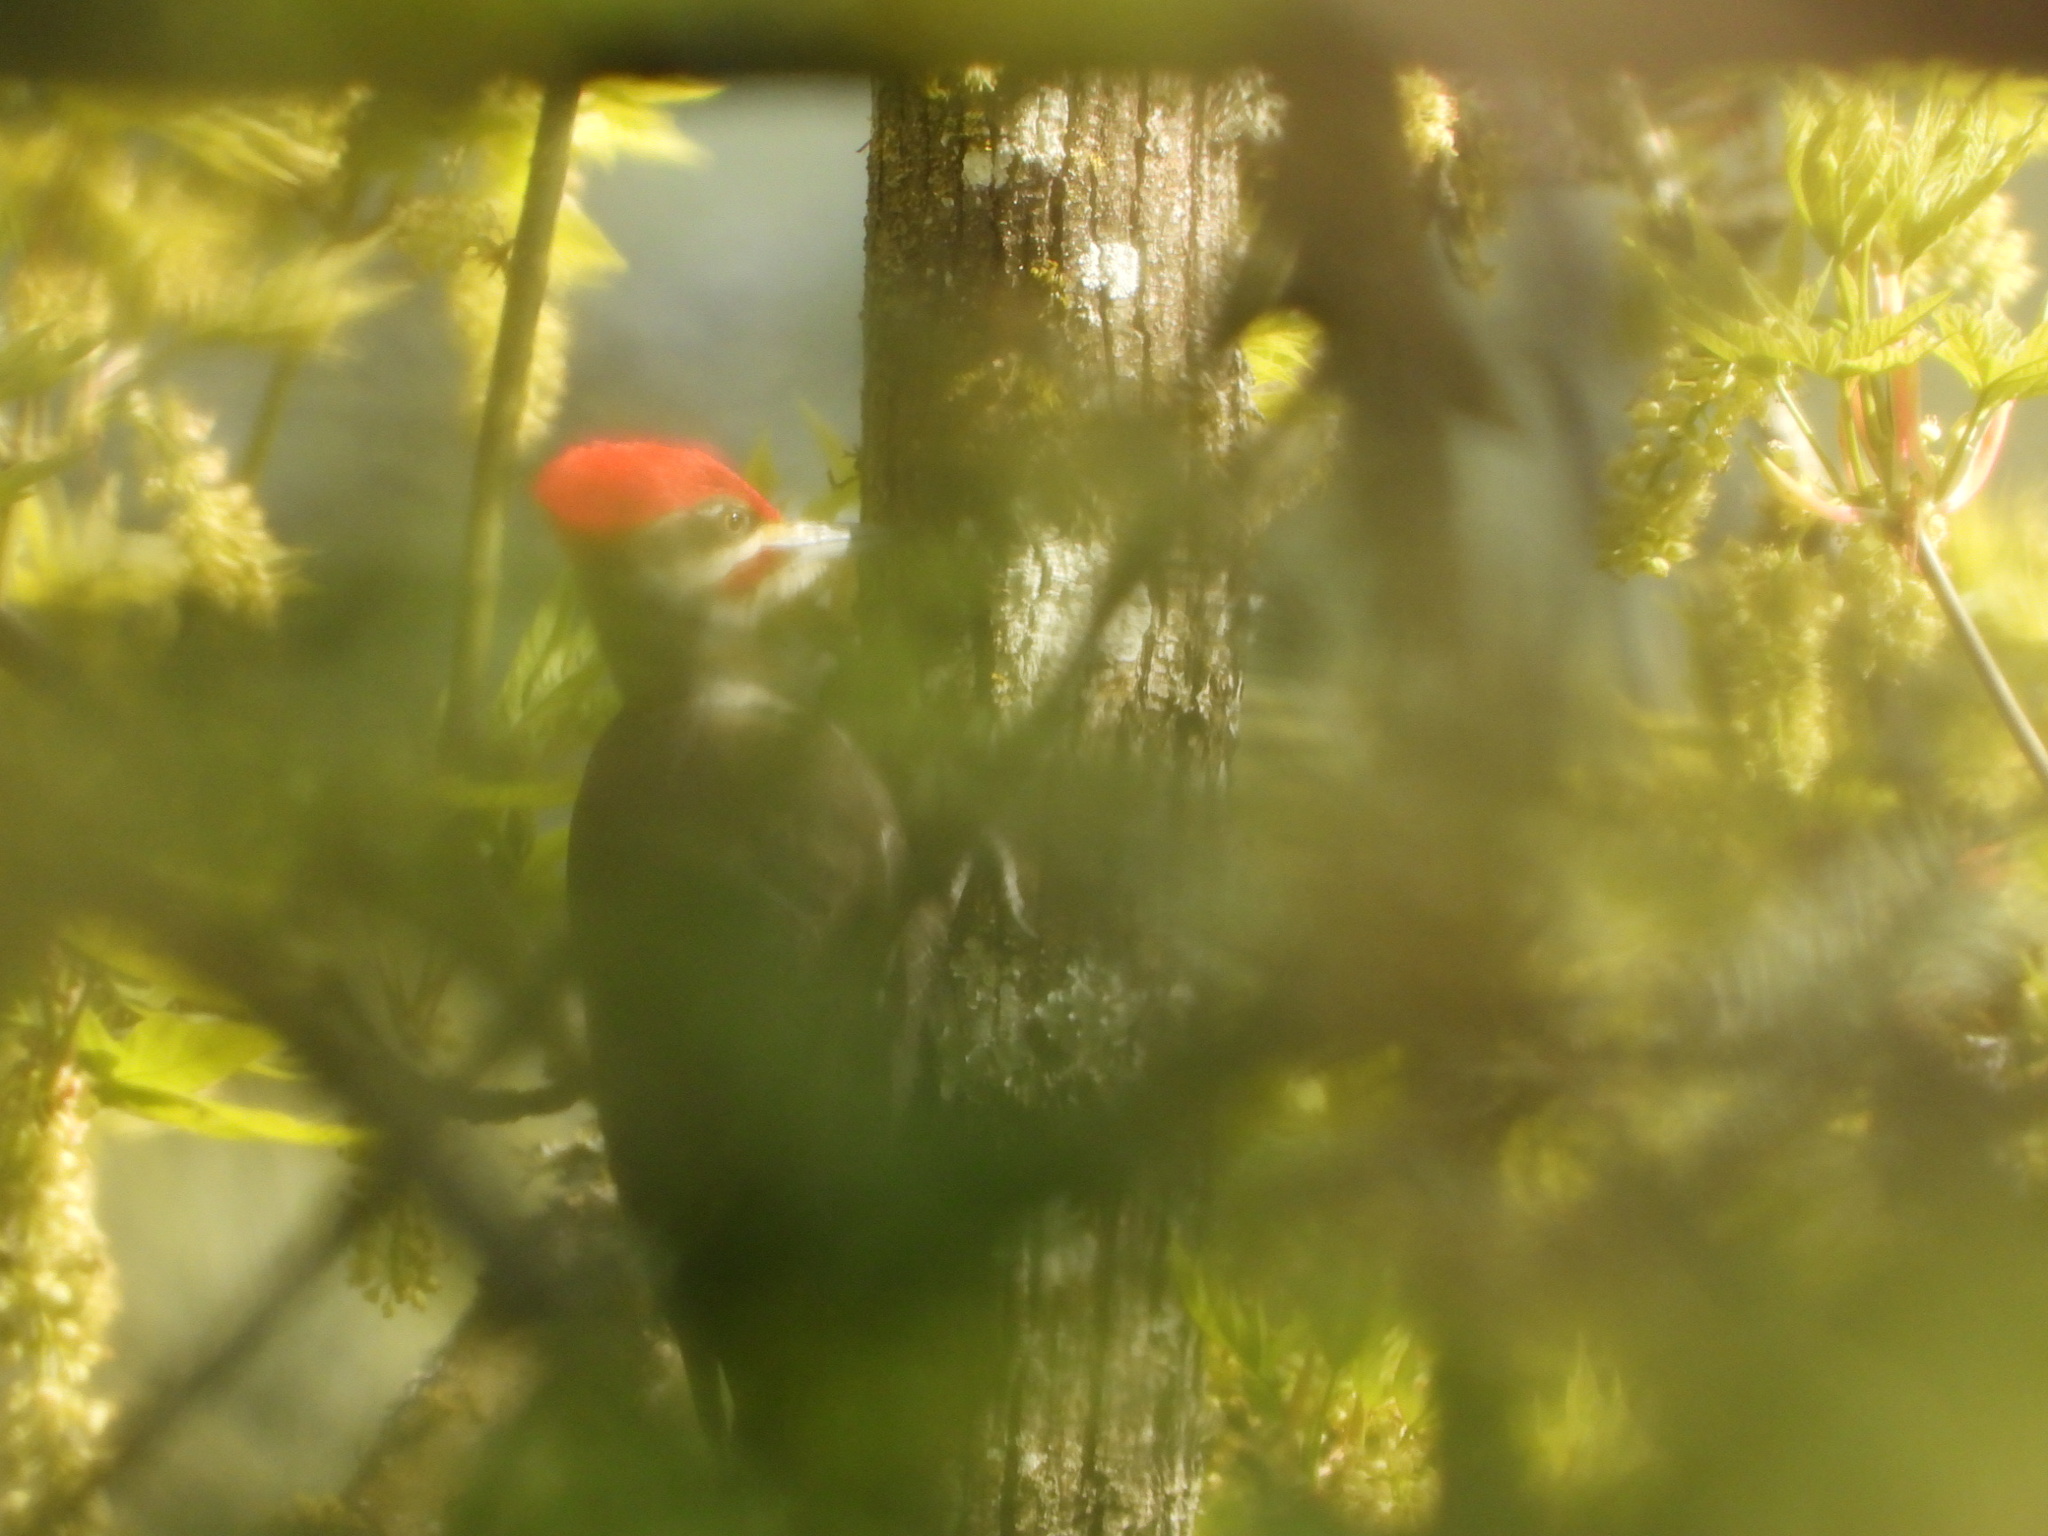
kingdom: Animalia
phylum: Chordata
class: Aves
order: Piciformes
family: Picidae
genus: Dryocopus
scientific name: Dryocopus pileatus
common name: Pileated woodpecker
